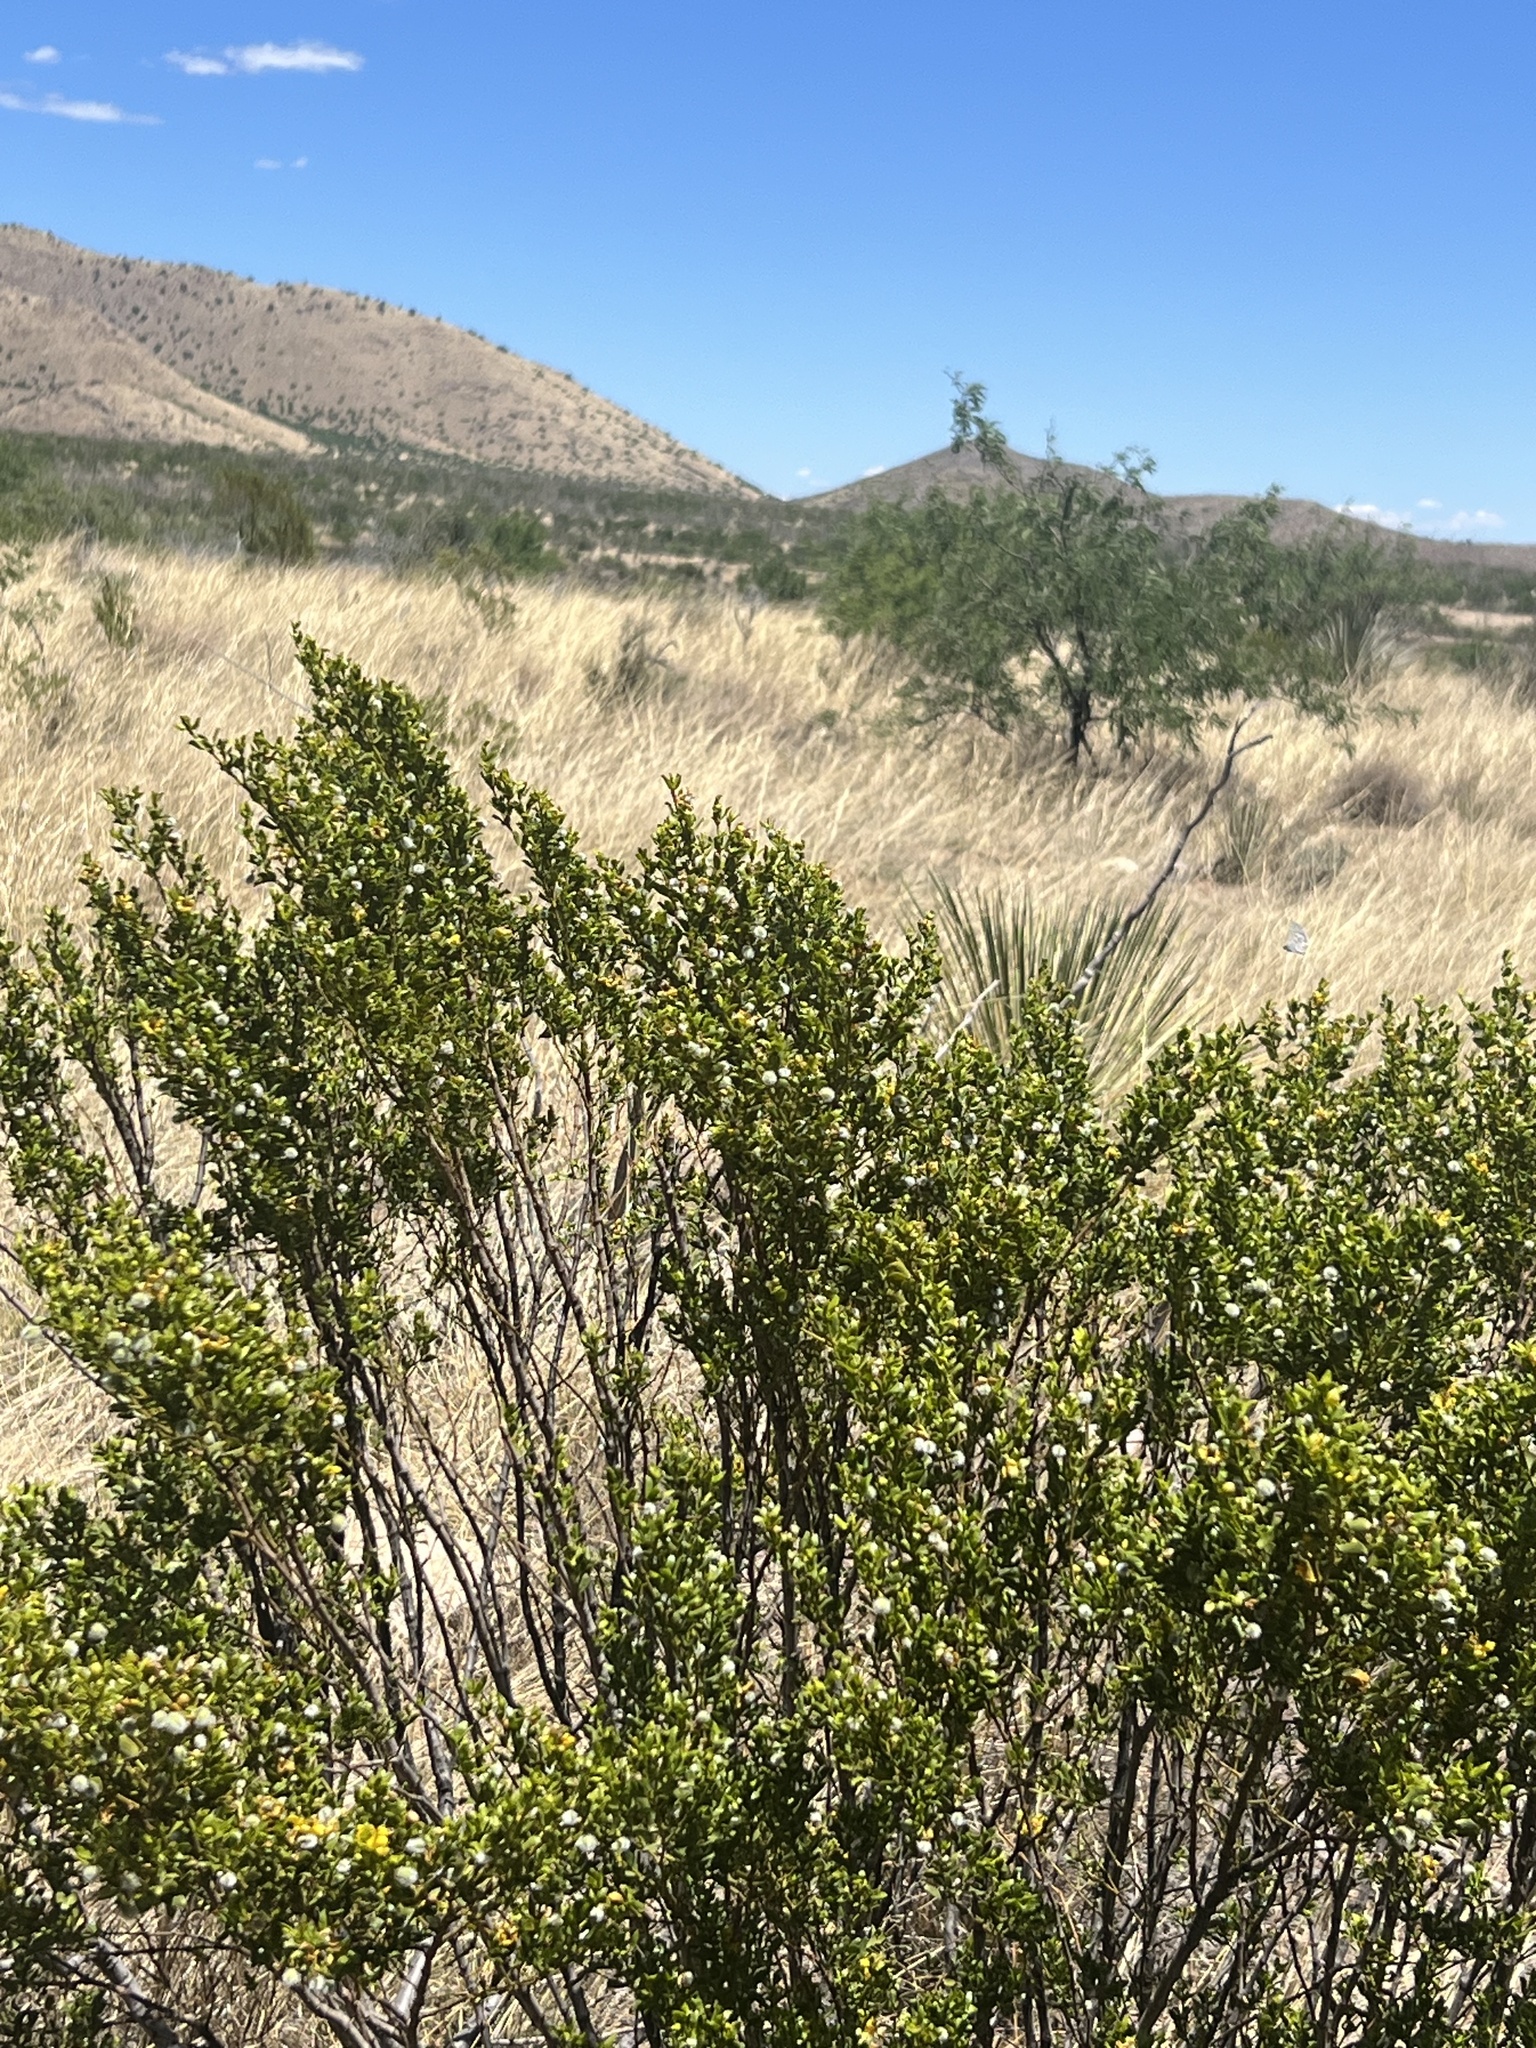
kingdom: Plantae
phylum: Tracheophyta
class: Magnoliopsida
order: Zygophyllales
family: Zygophyllaceae
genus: Larrea
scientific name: Larrea tridentata
